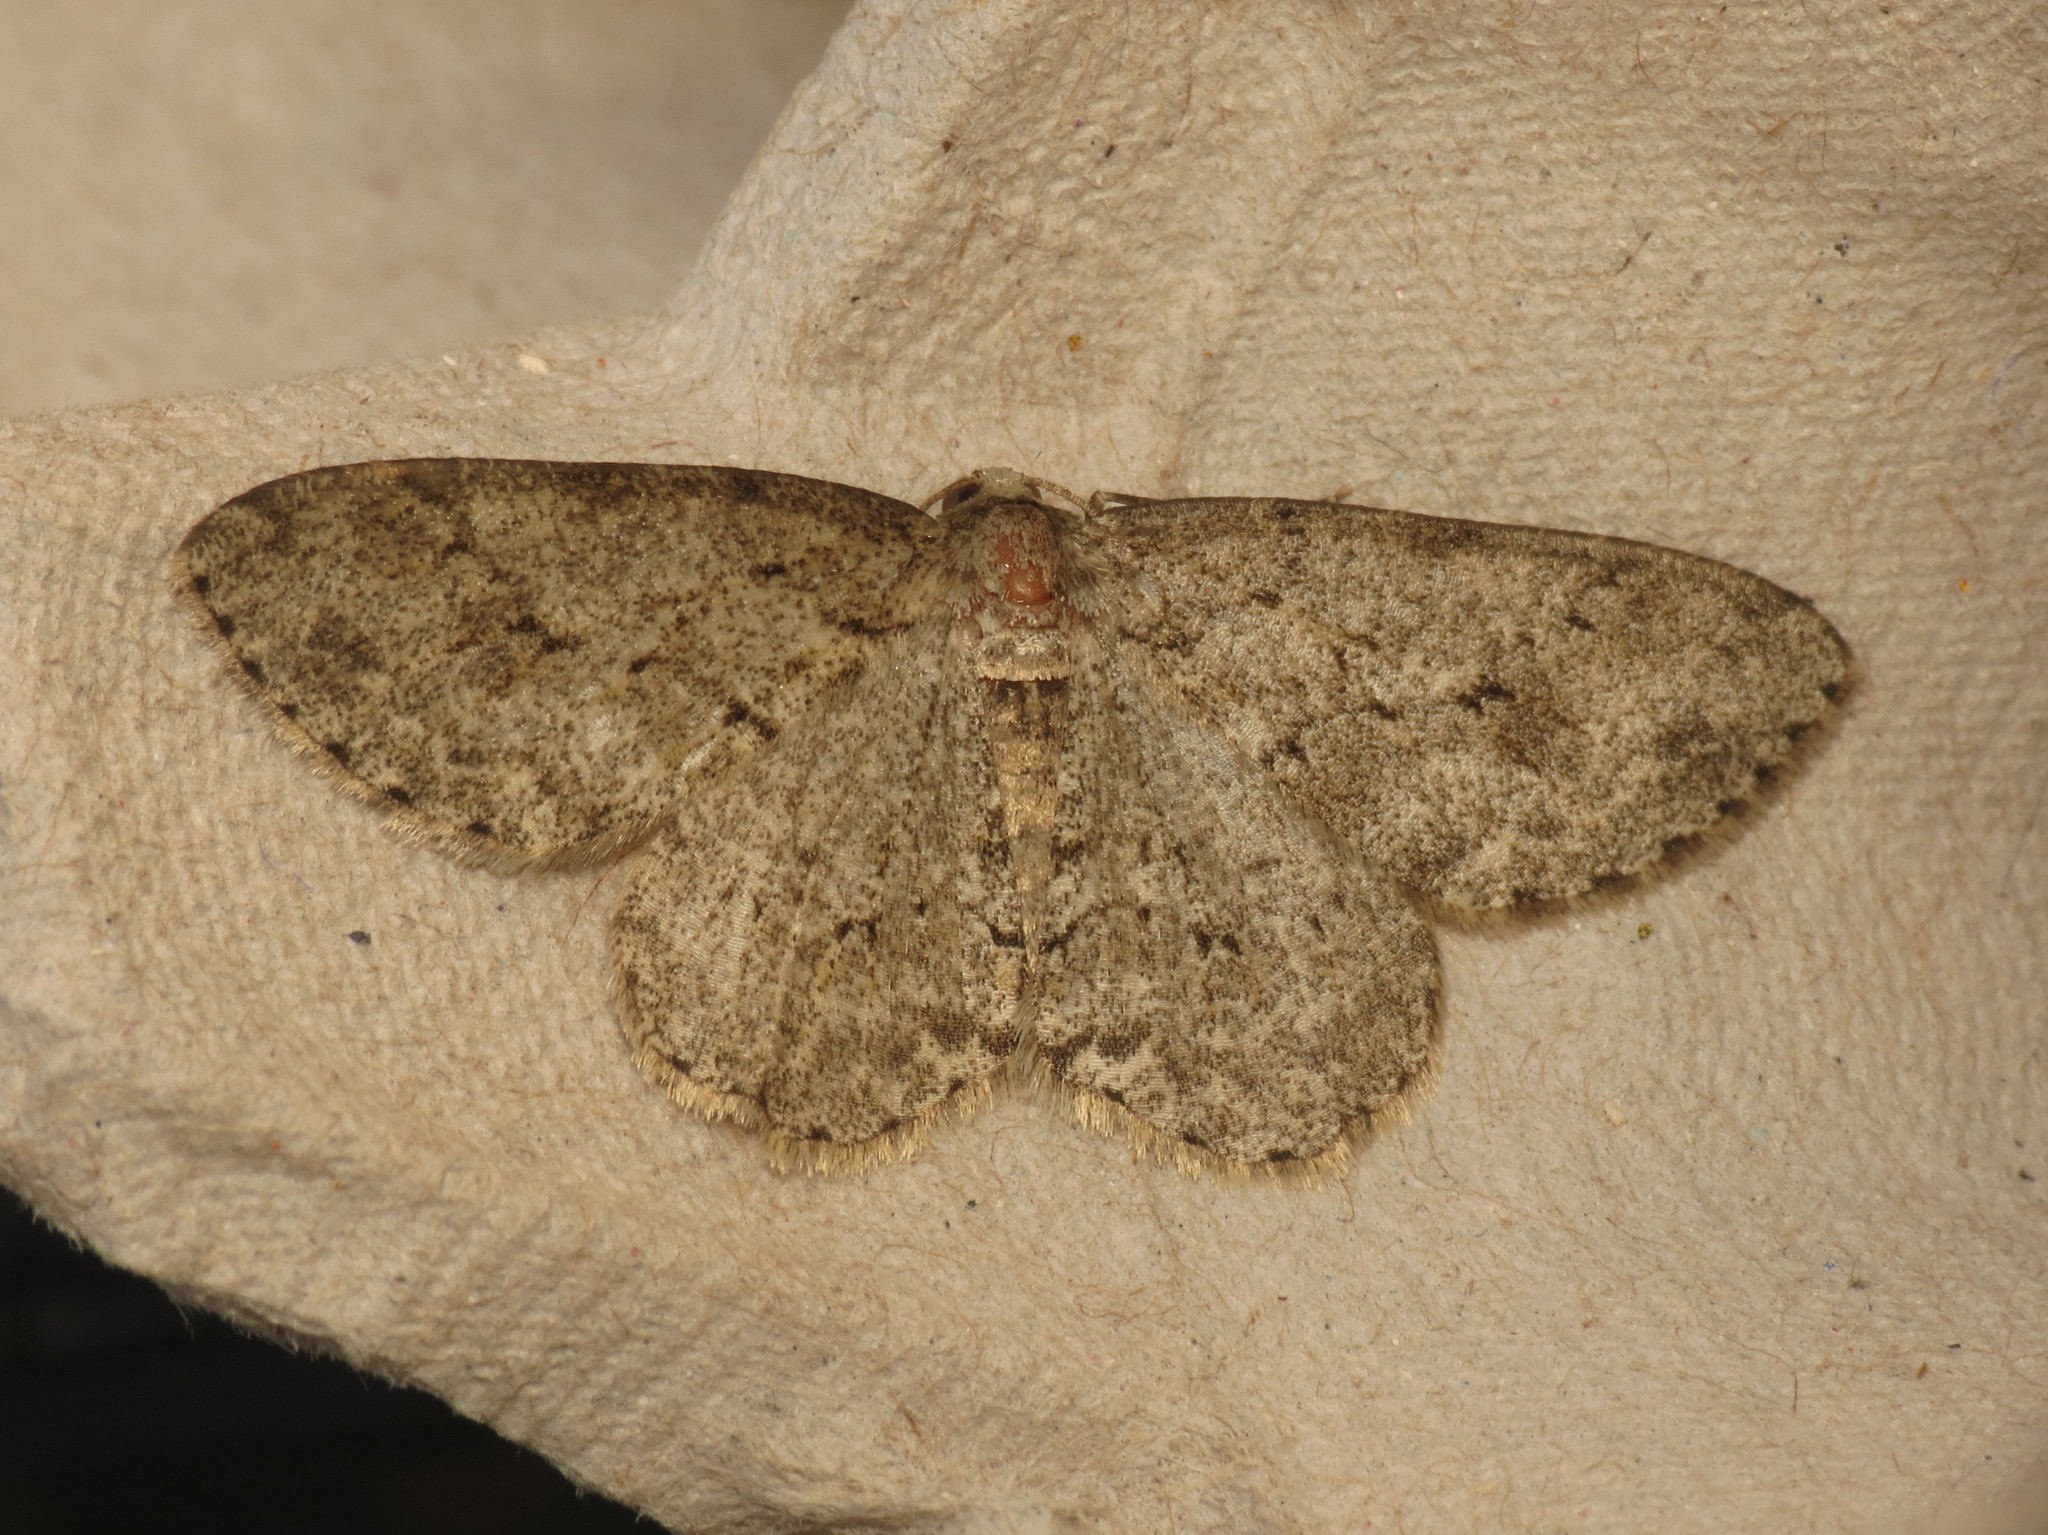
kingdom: Animalia
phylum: Arthropoda
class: Insecta
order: Lepidoptera
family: Geometridae
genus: Ectropis
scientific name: Ectropis crepuscularia
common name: Engrailed
